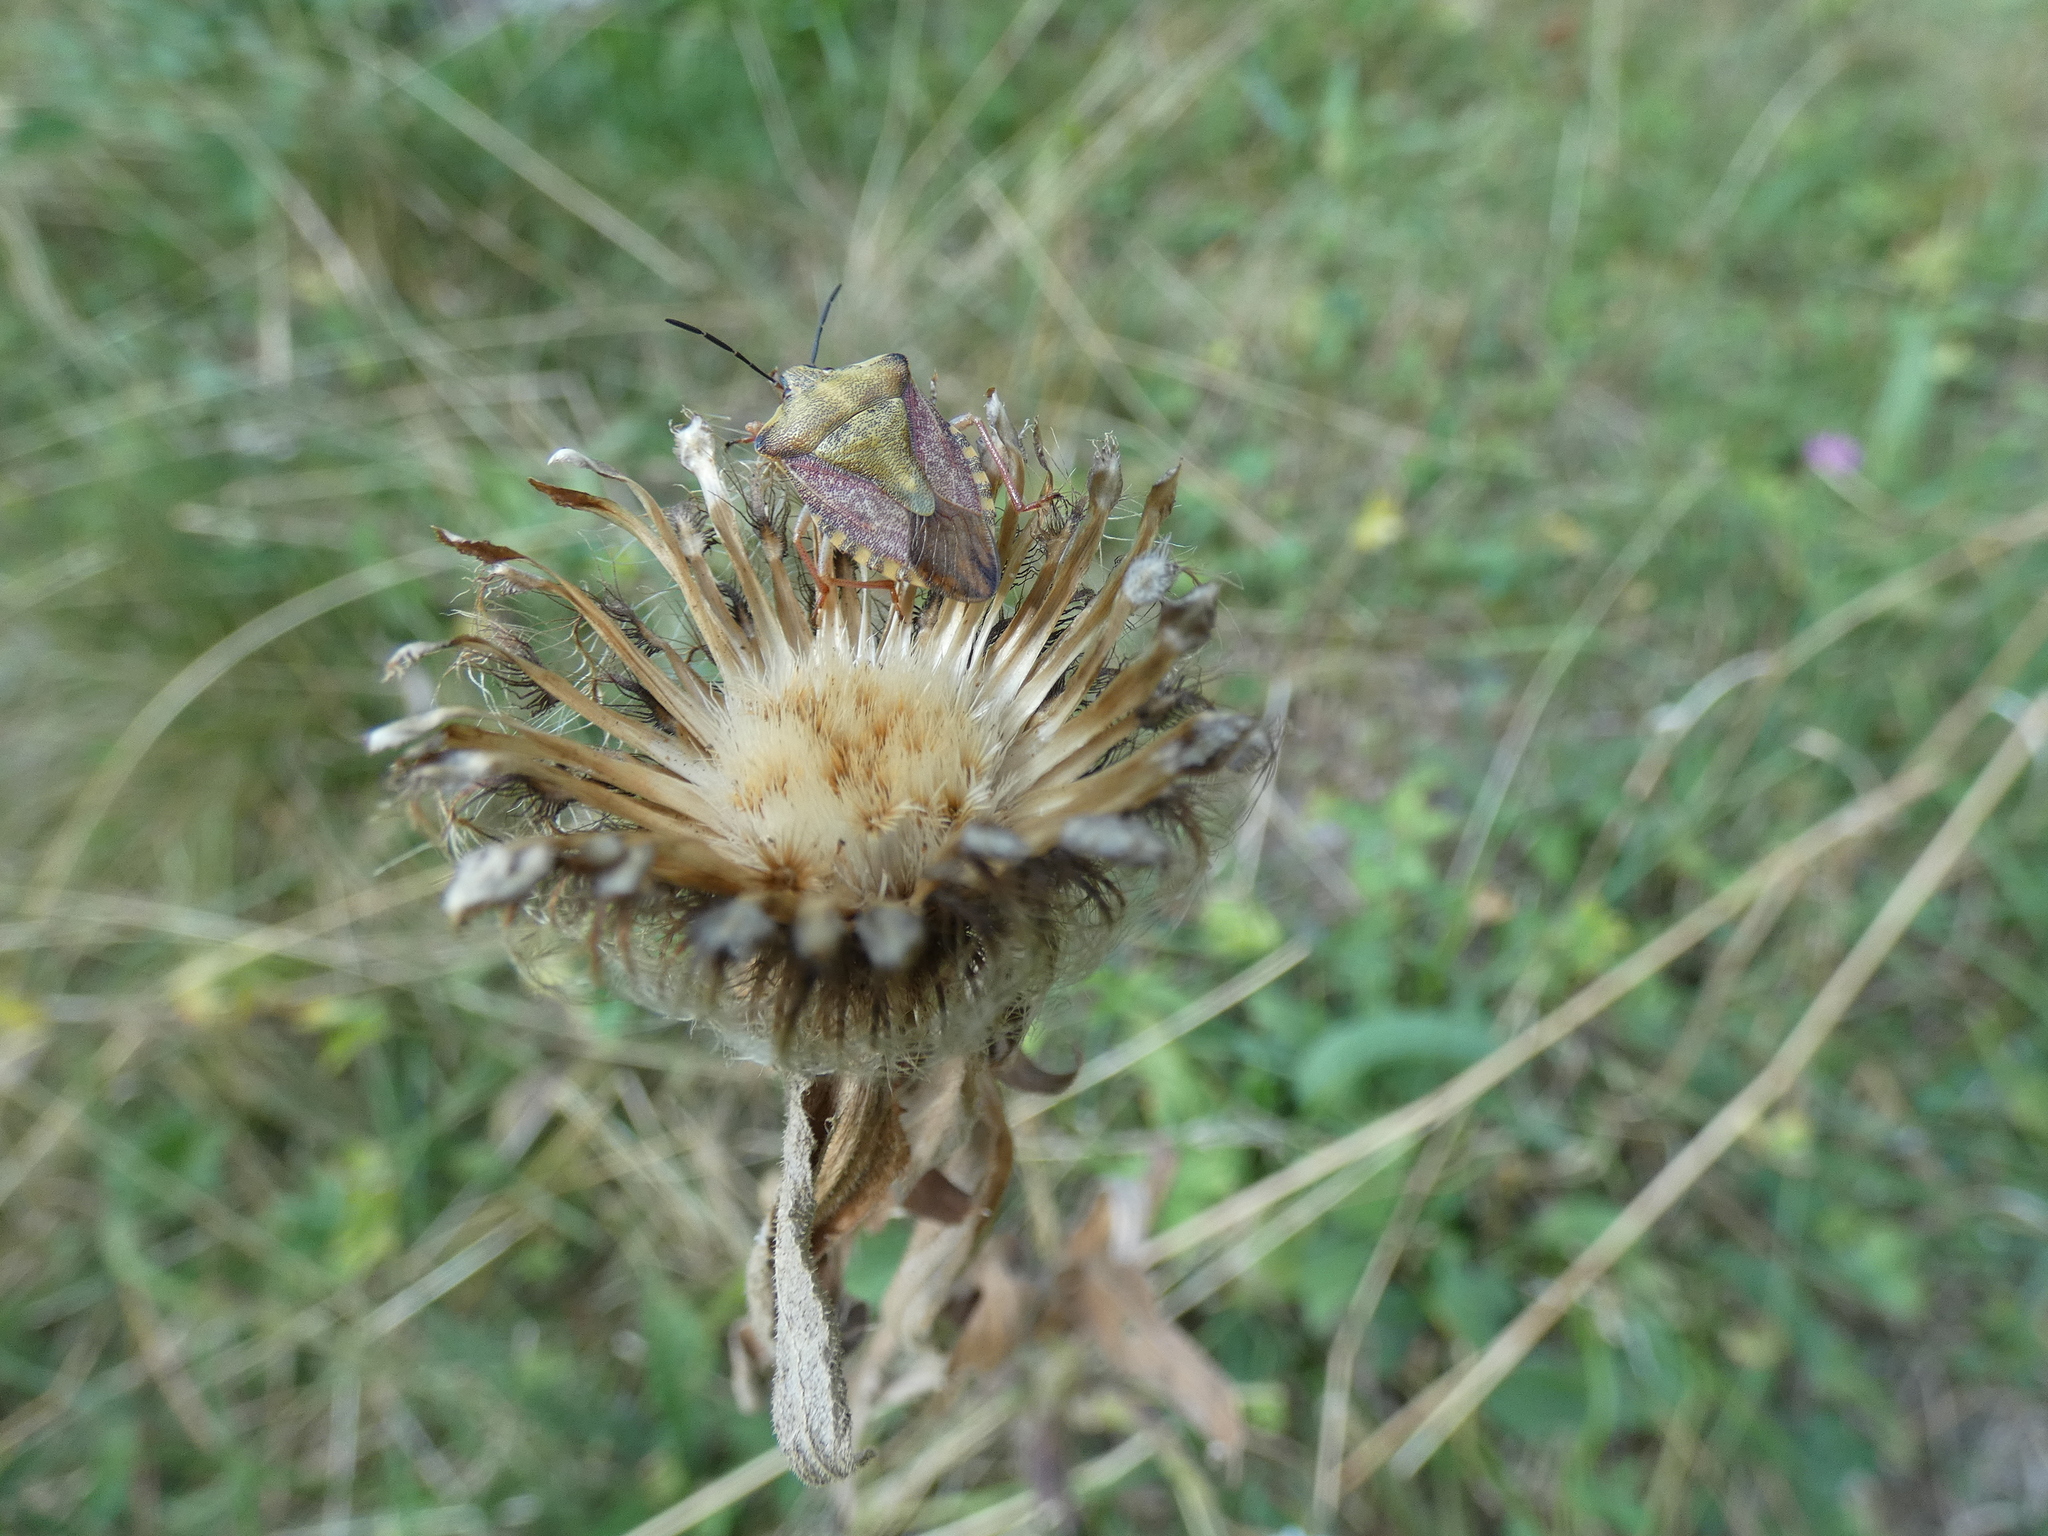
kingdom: Animalia
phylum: Arthropoda
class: Insecta
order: Hemiptera
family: Pentatomidae
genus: Carpocoris
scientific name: Carpocoris purpureipennis
